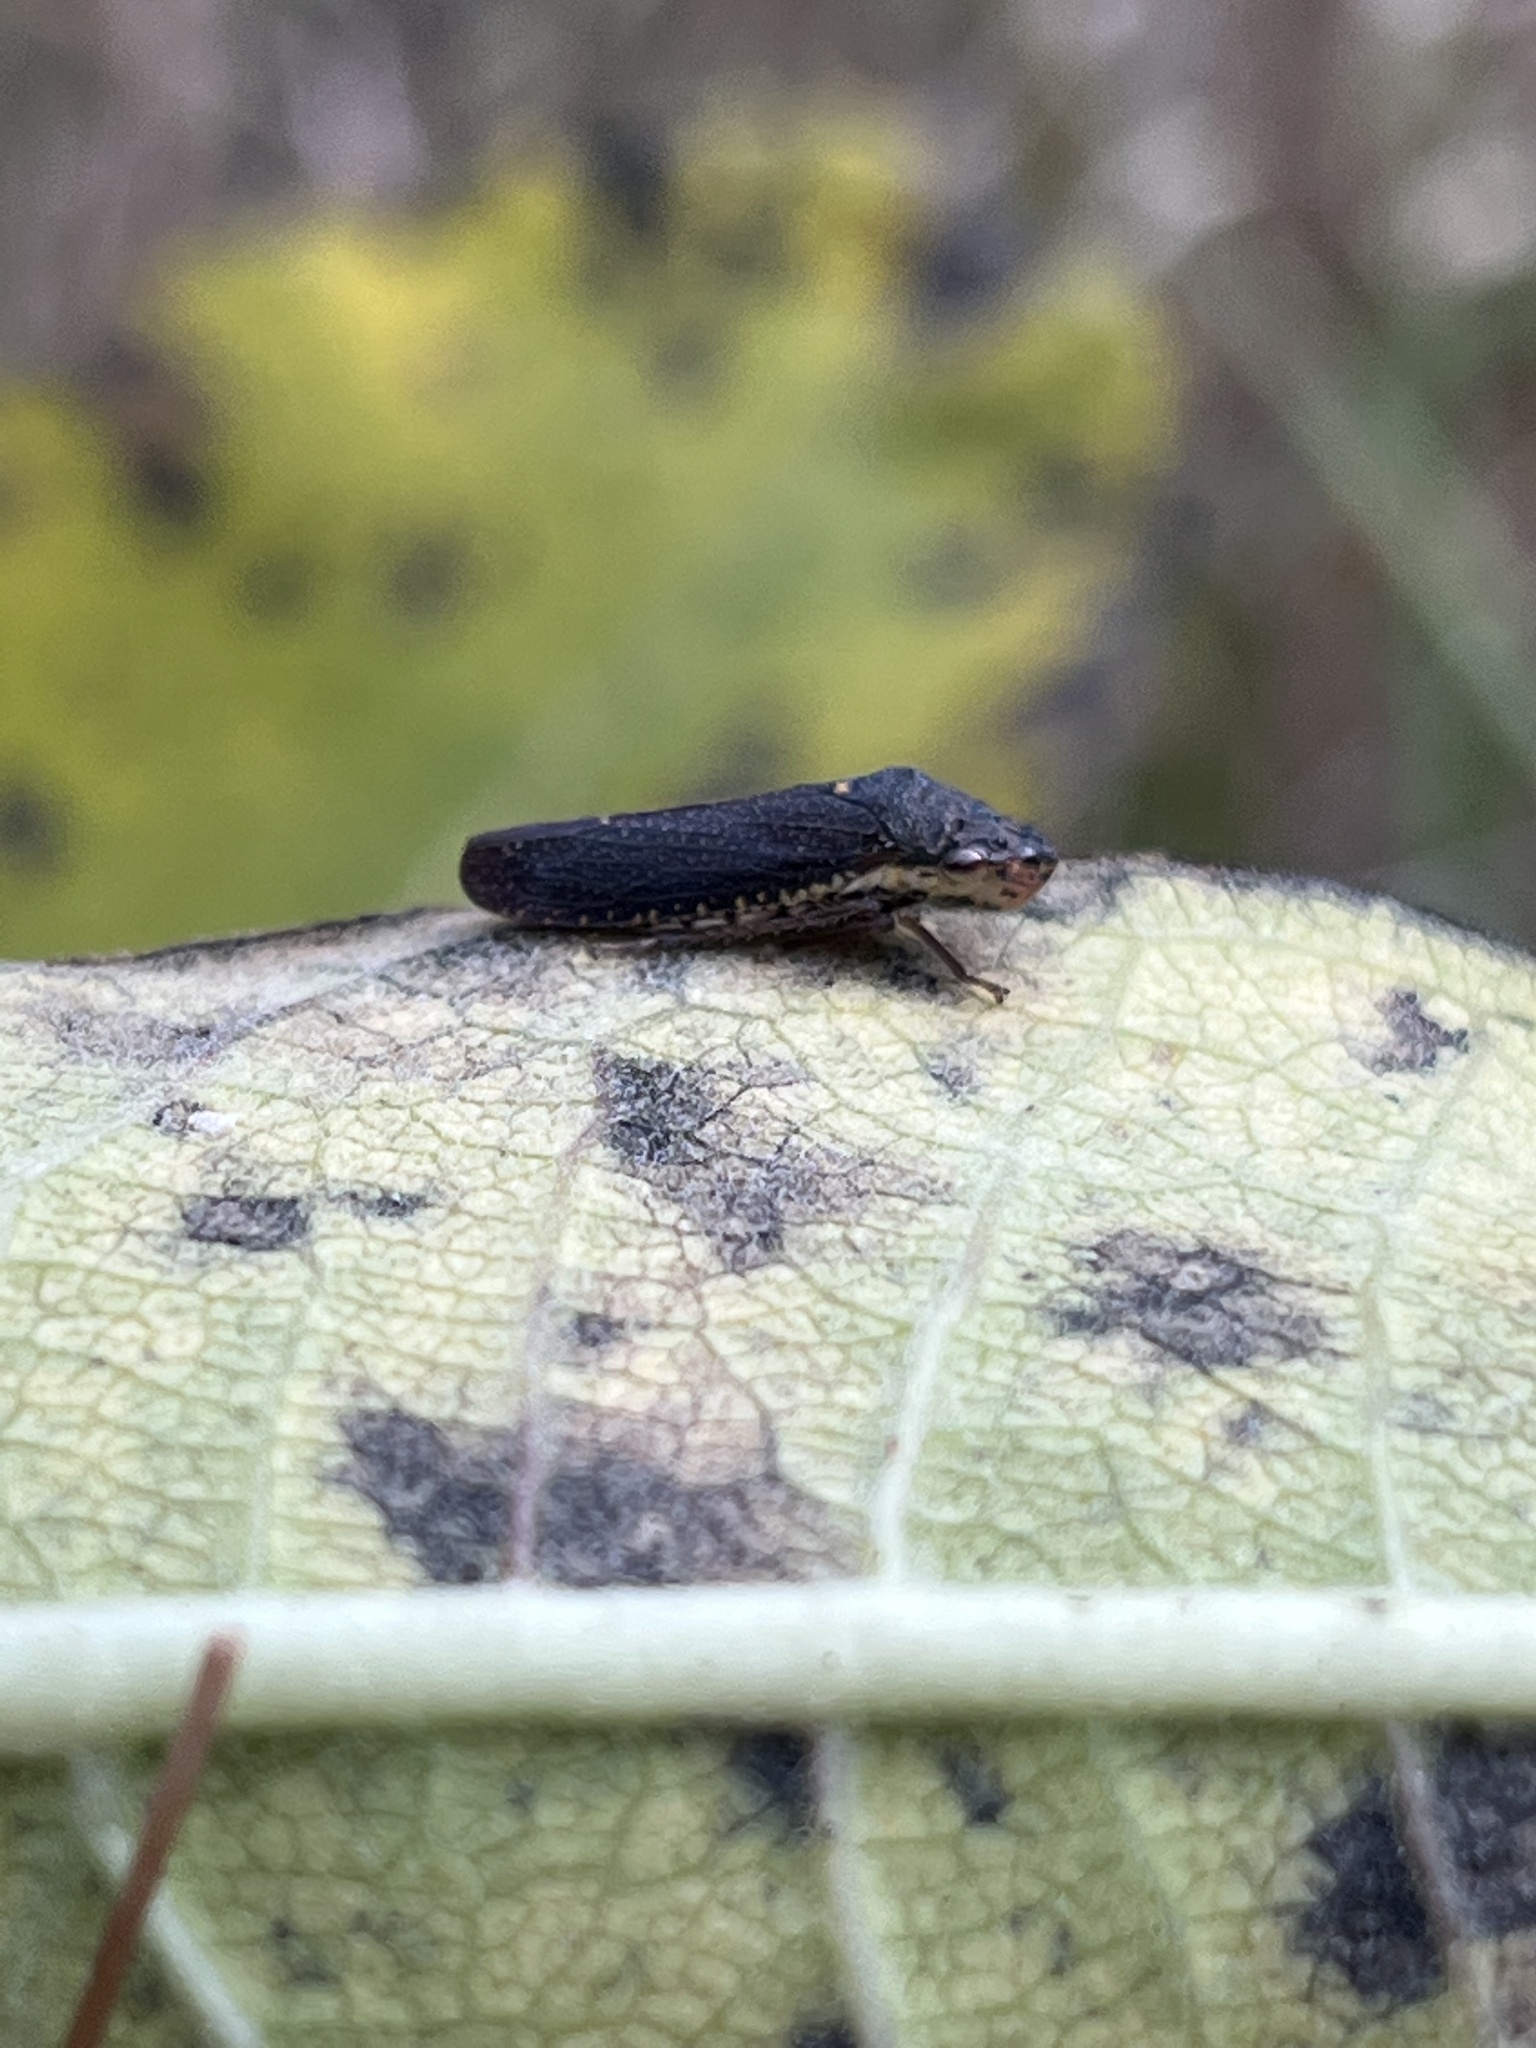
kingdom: Animalia
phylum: Arthropoda
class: Insecta
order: Hemiptera
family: Cicadellidae
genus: Paraulacizes
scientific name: Paraulacizes irrorata
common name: Speckled sharpshooter
